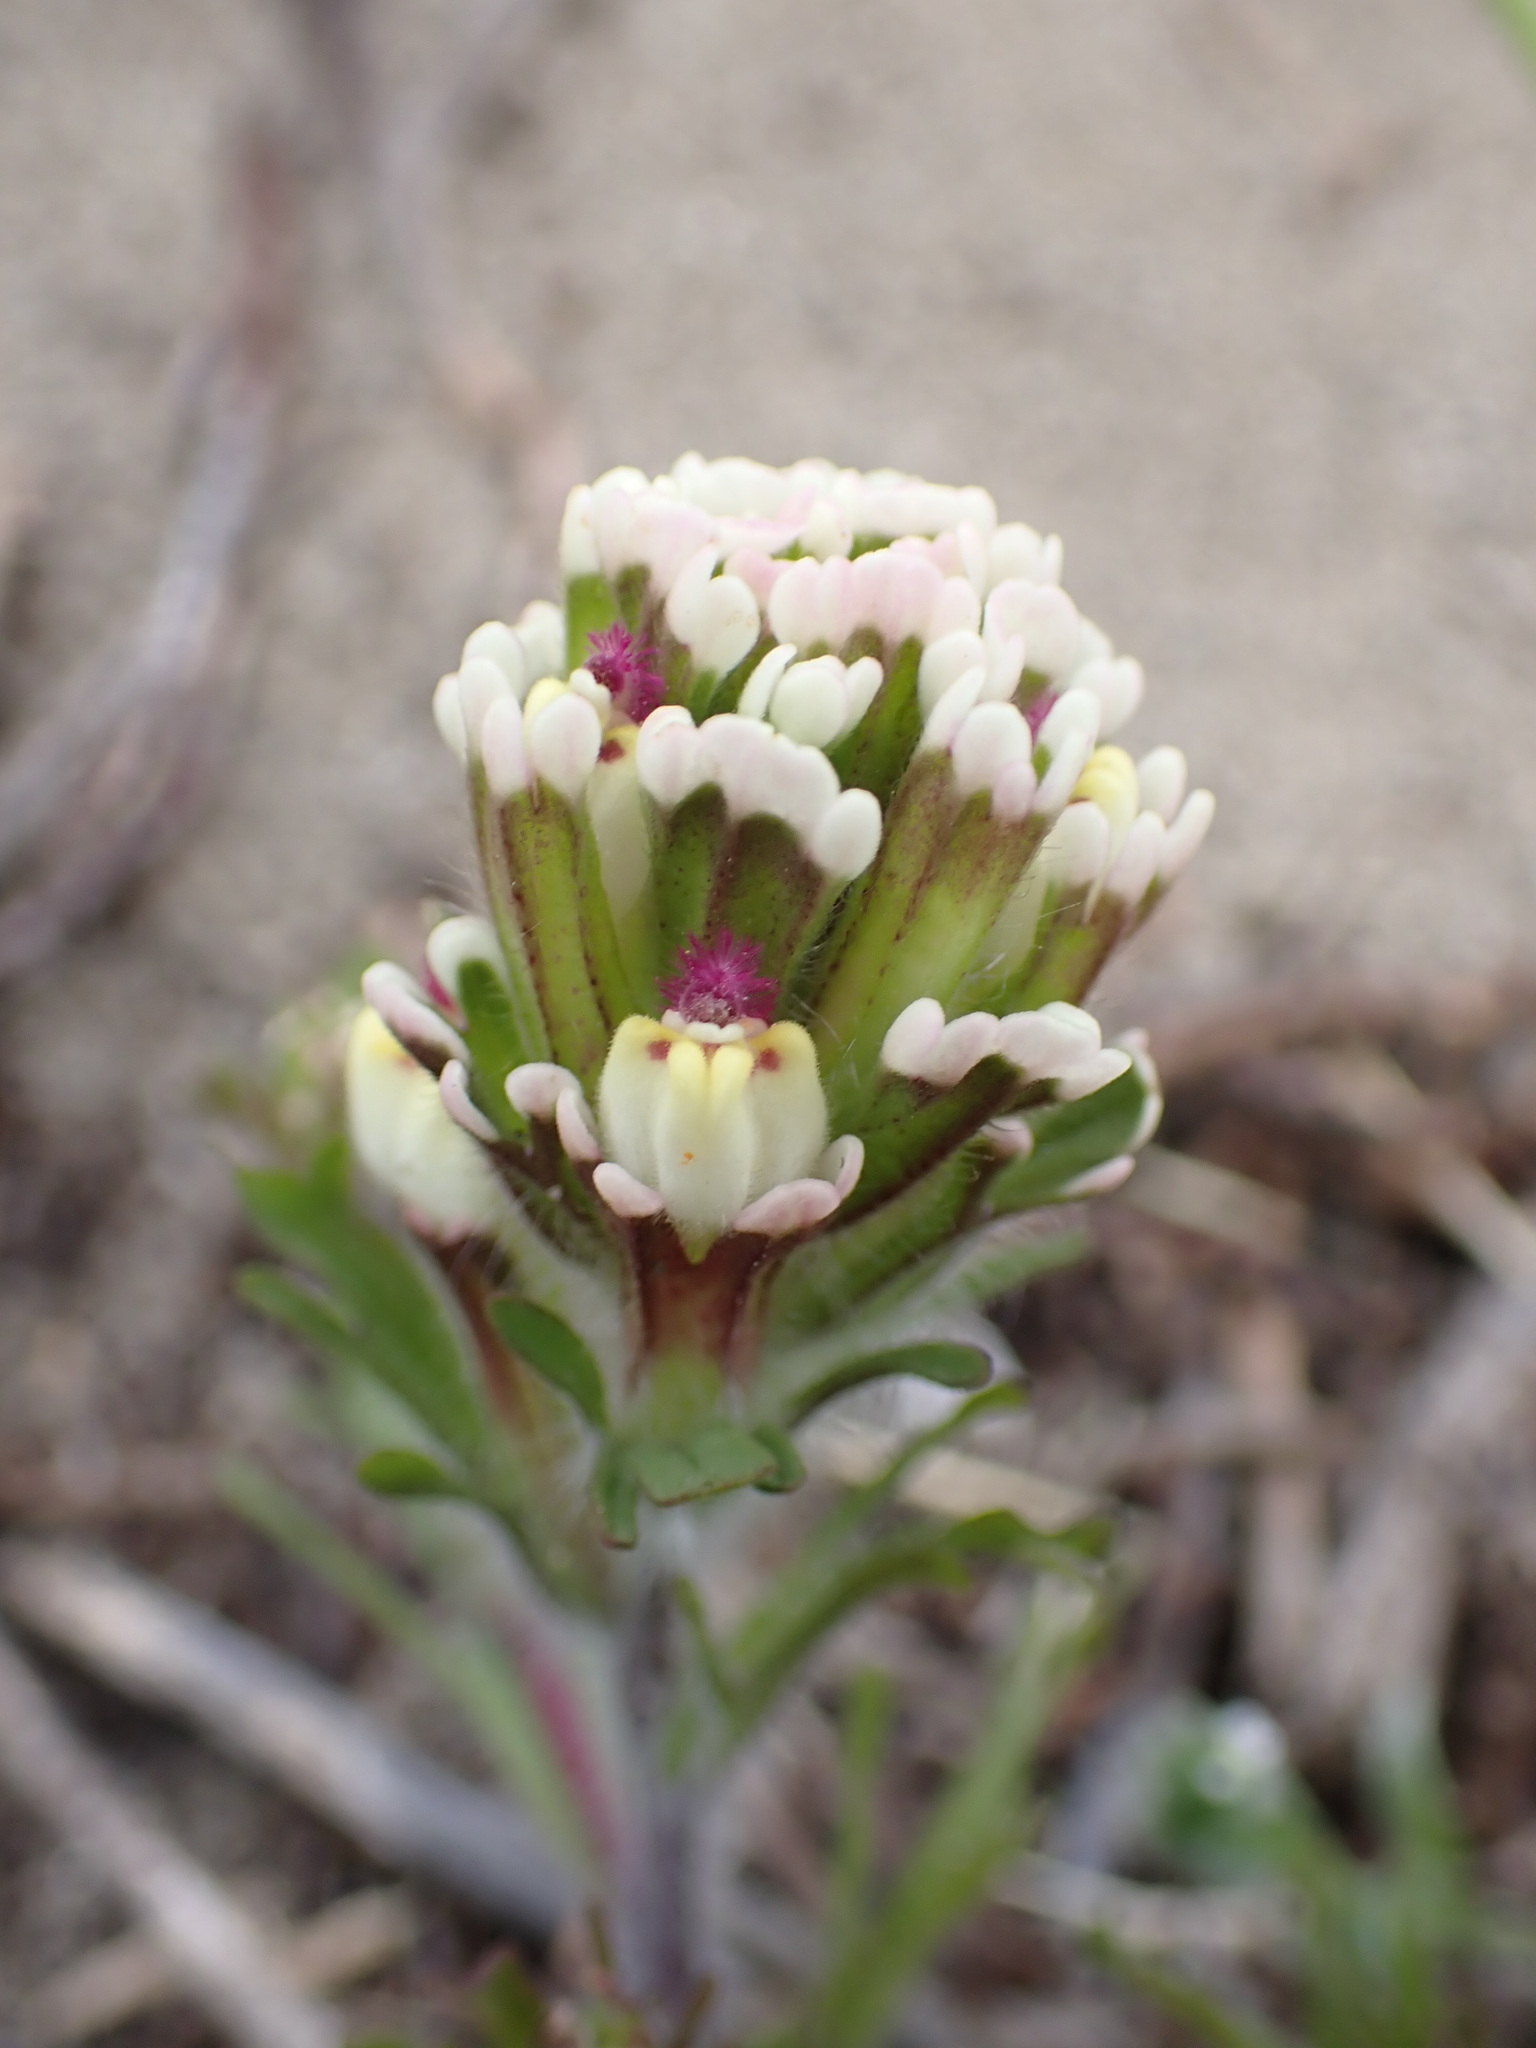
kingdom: Plantae
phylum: Tracheophyta
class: Magnoliopsida
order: Lamiales
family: Orobanchaceae
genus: Castilleja
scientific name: Castilleja exserta
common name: Purple owl-clover
